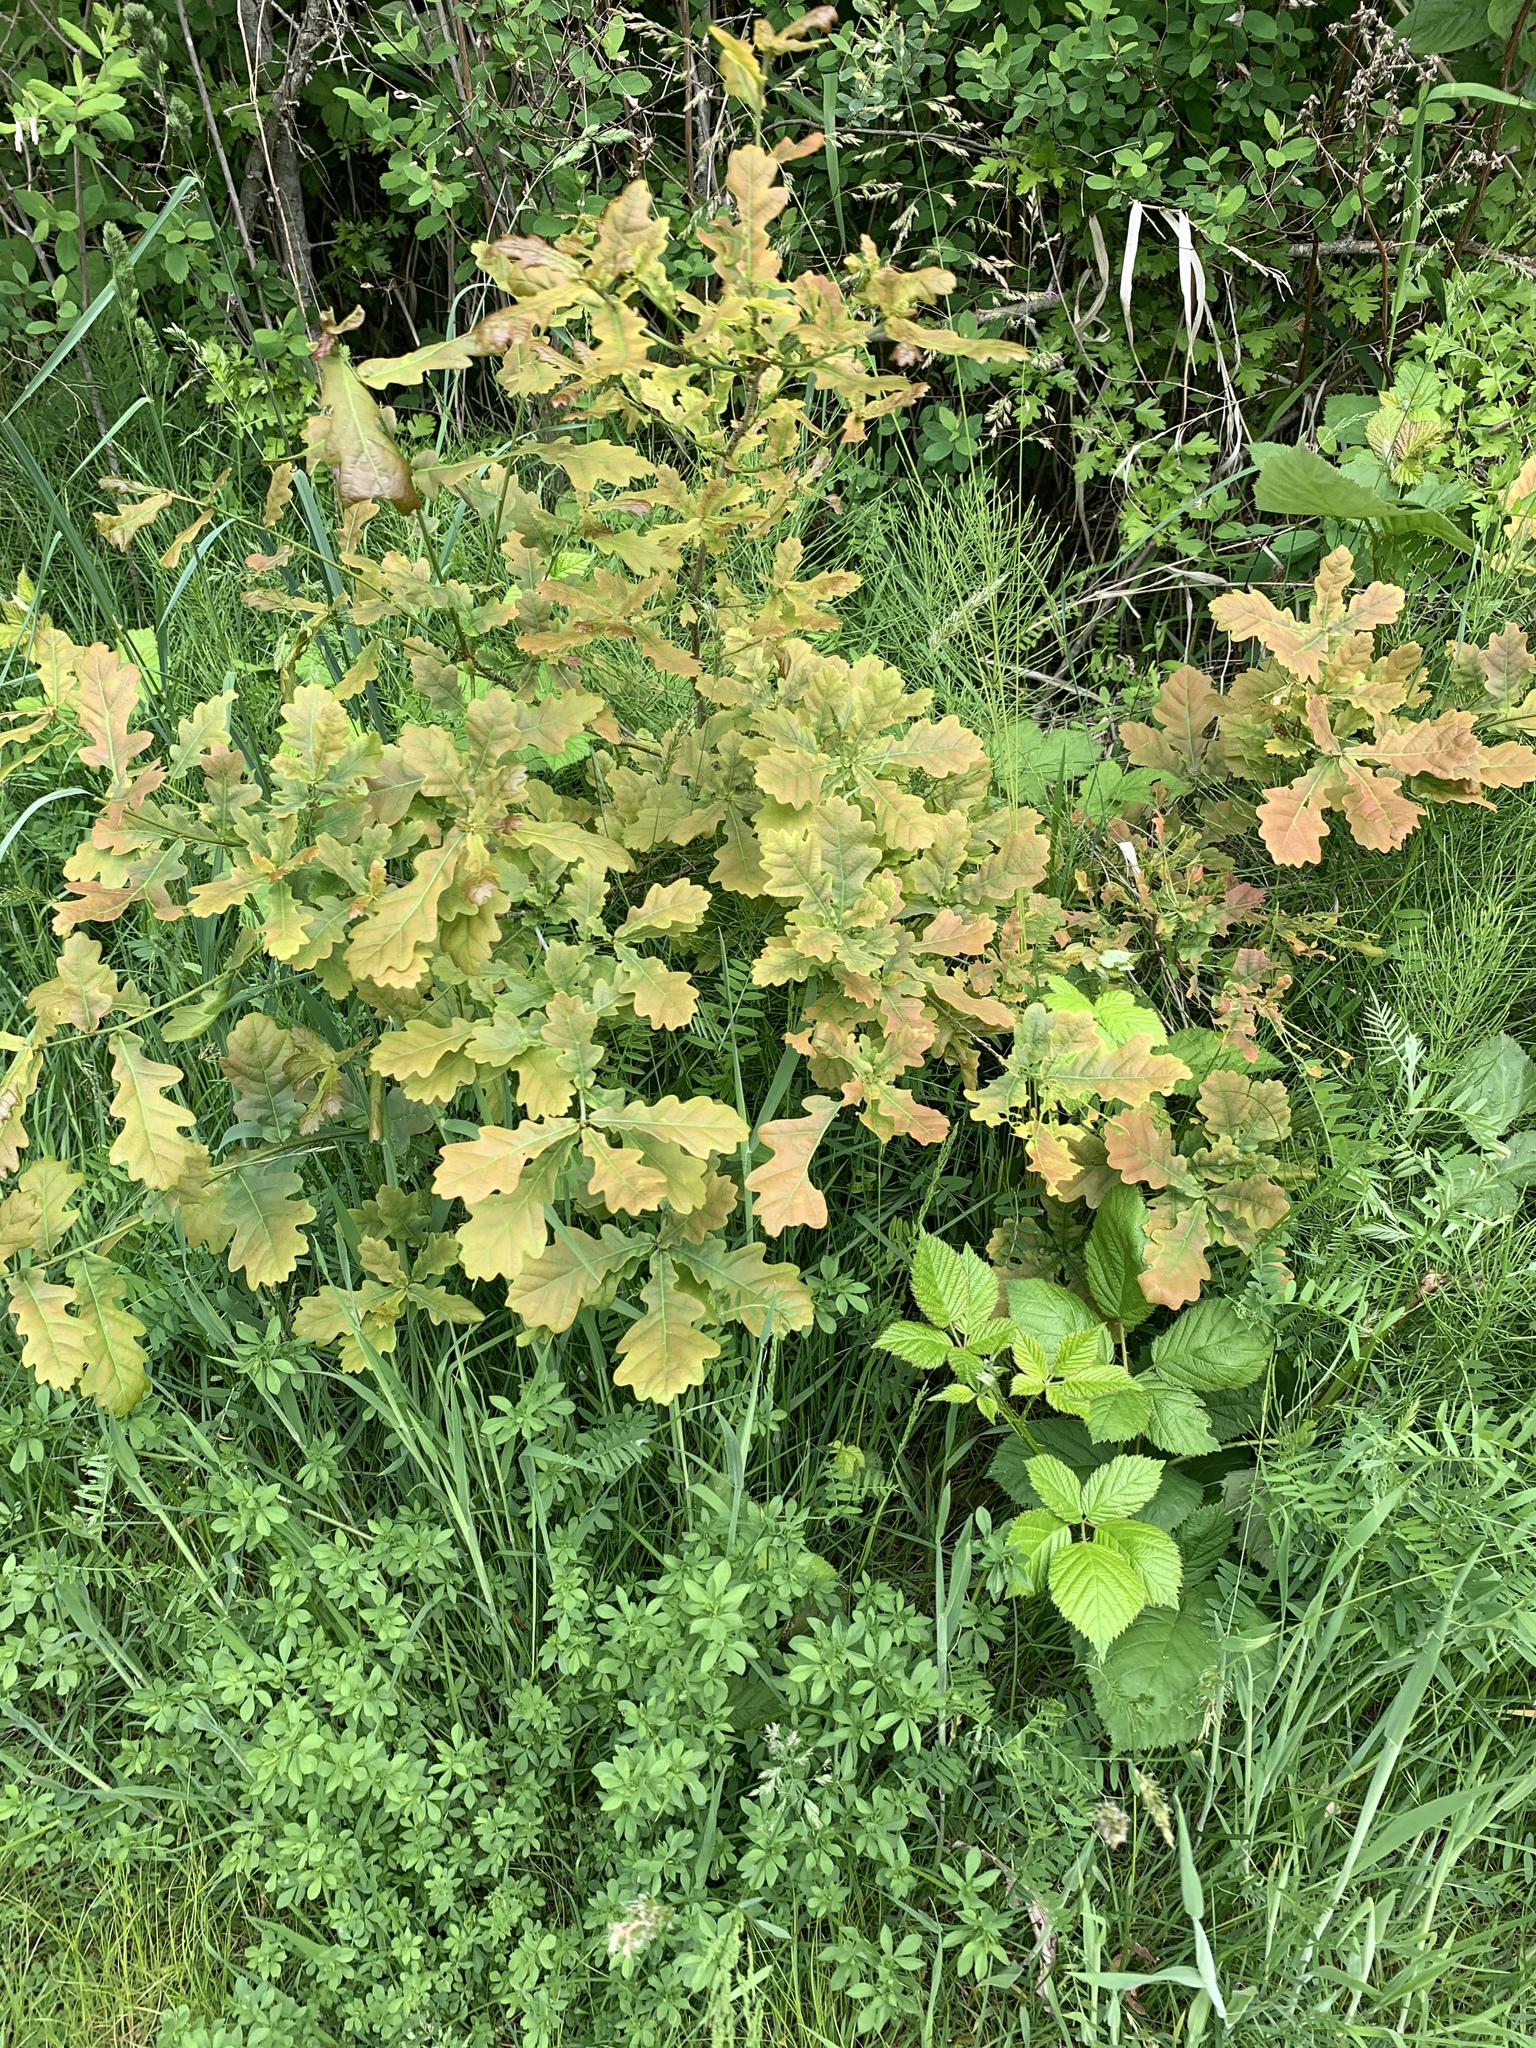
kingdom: Plantae
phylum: Tracheophyta
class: Magnoliopsida
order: Fagales
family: Fagaceae
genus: Quercus
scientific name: Quercus robur
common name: Pedunculate oak
